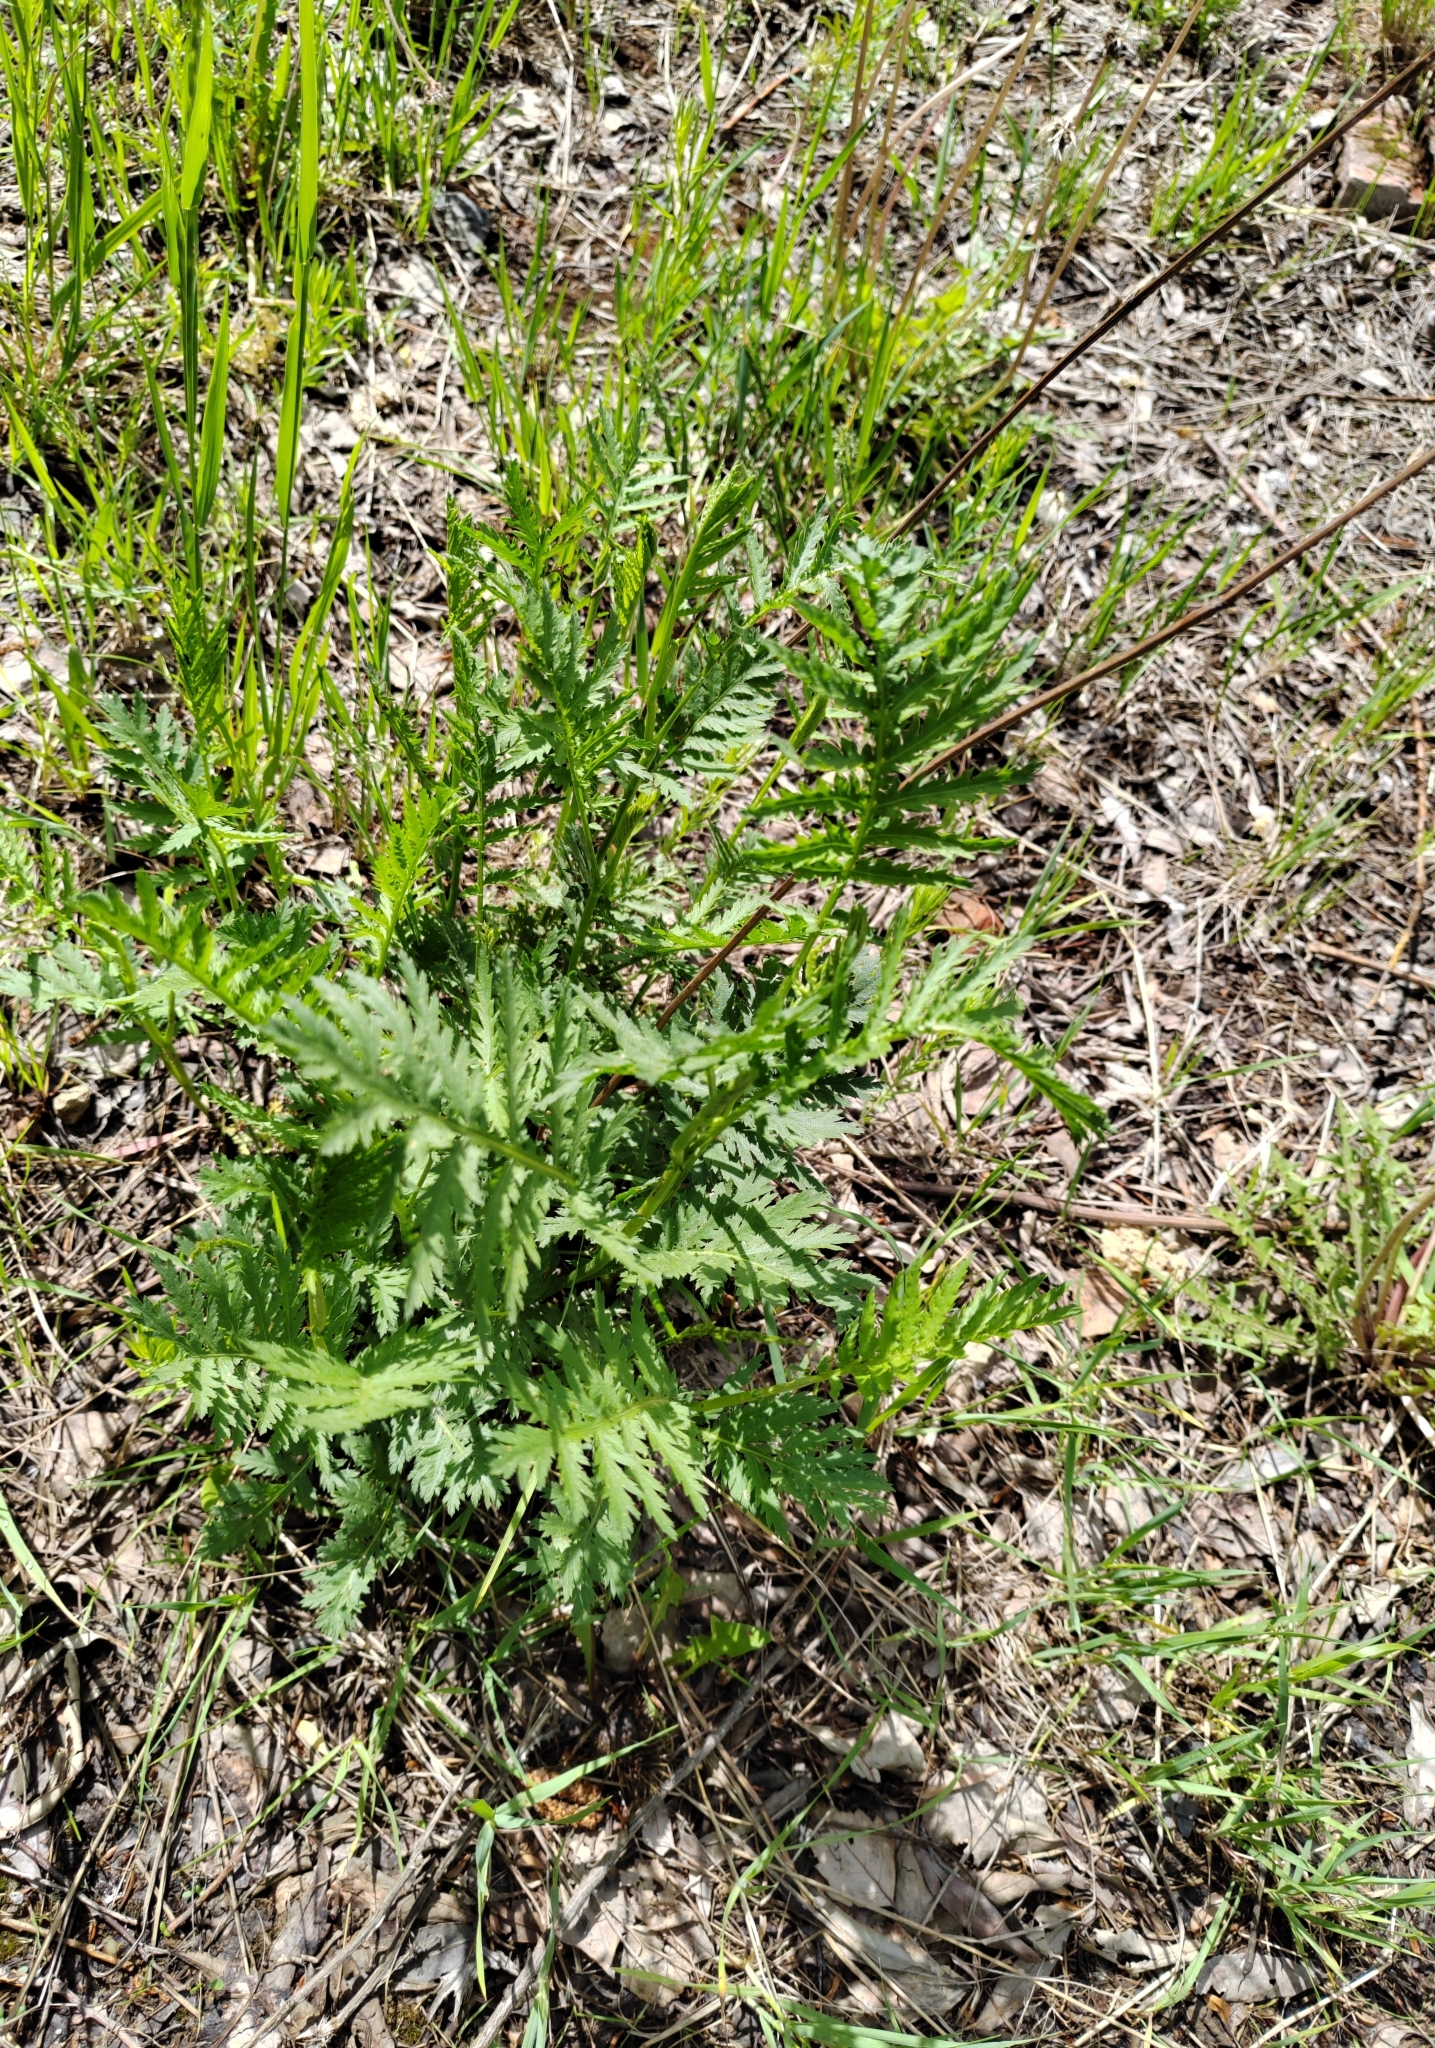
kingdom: Plantae
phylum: Tracheophyta
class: Magnoliopsida
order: Asterales
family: Asteraceae
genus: Tanacetum
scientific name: Tanacetum vulgare
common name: Common tansy
